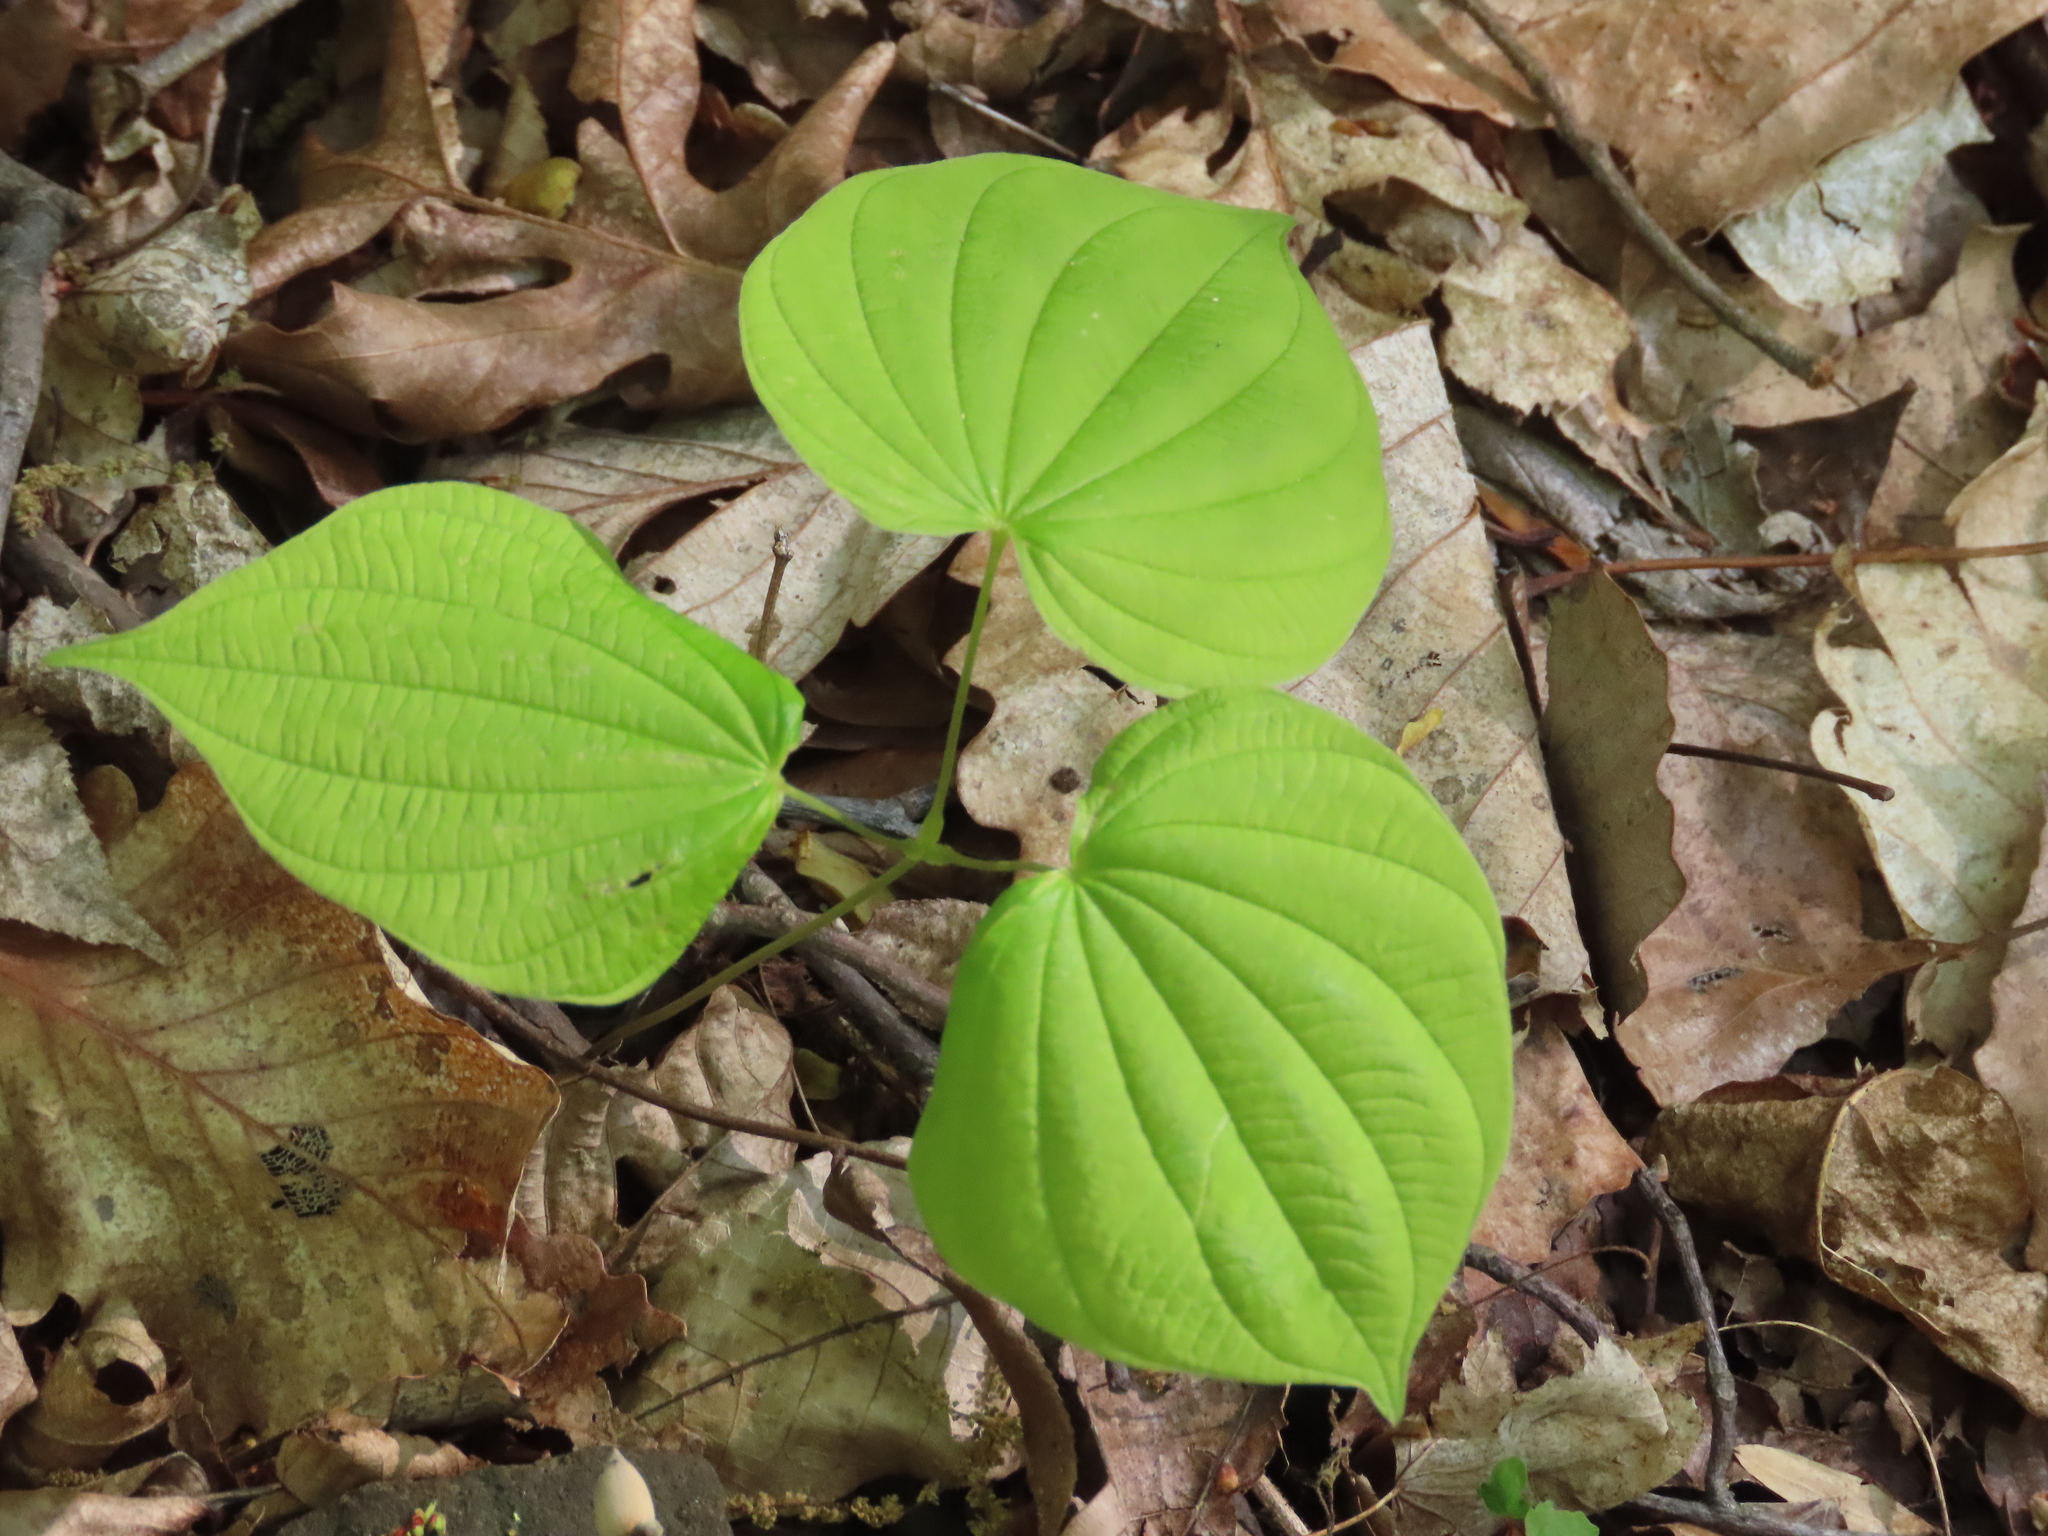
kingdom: Plantae
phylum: Tracheophyta
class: Liliopsida
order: Dioscoreales
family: Dioscoreaceae
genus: Dioscorea
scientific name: Dioscorea villosa
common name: Wild yam
